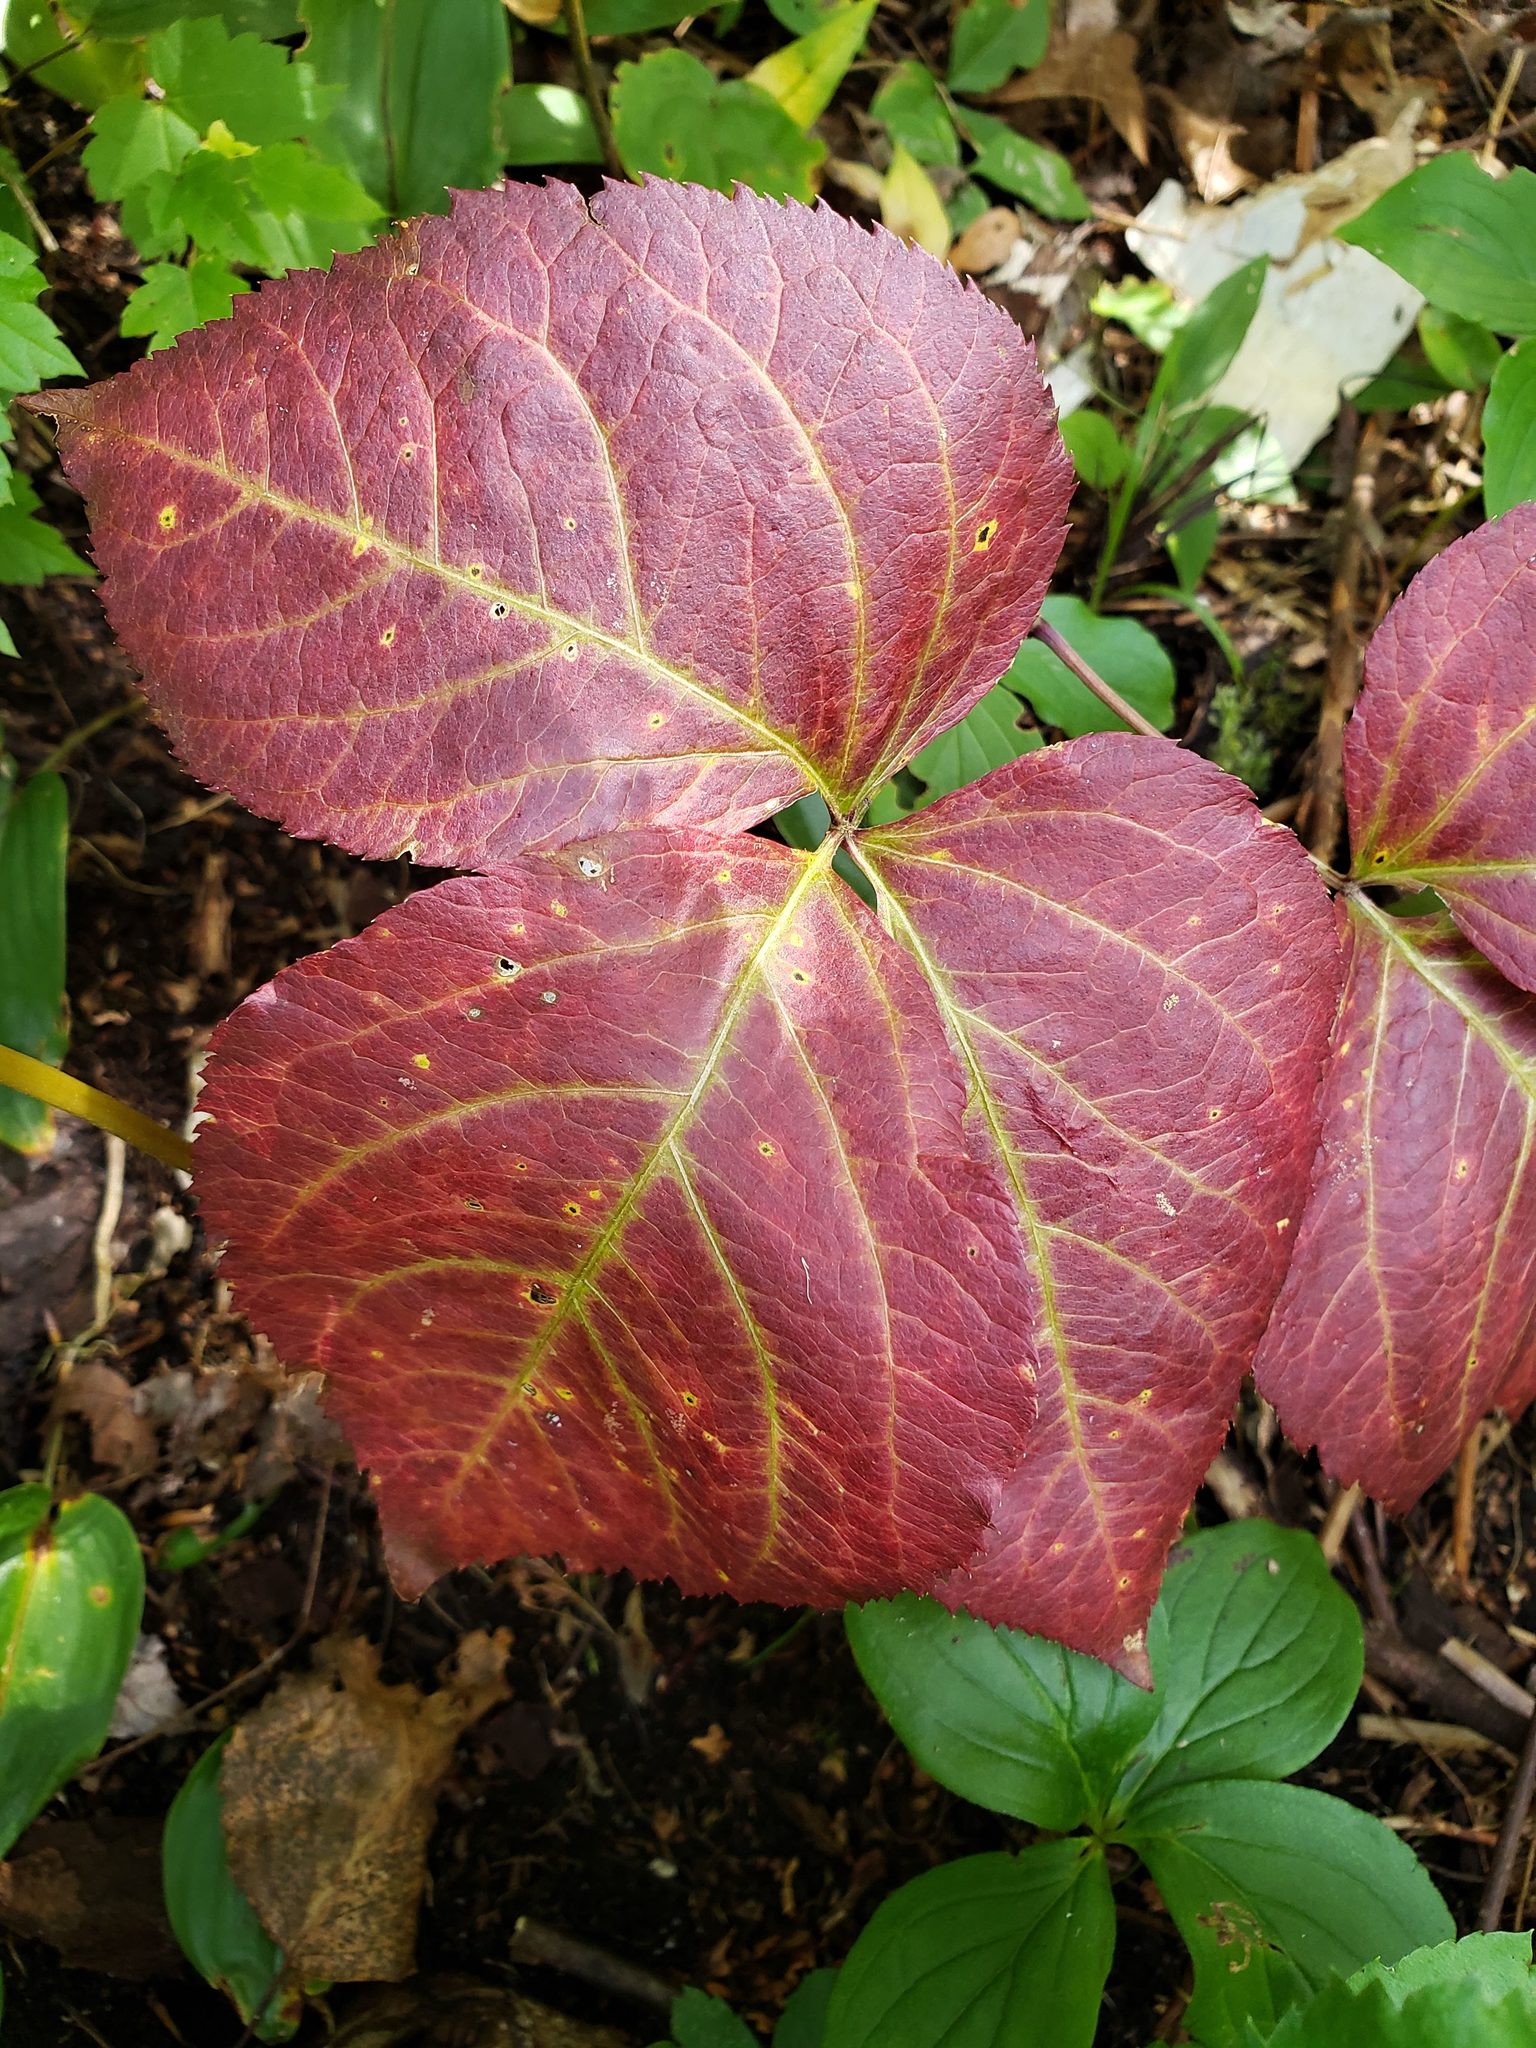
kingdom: Plantae
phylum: Tracheophyta
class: Magnoliopsida
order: Apiales
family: Araliaceae
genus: Aralia
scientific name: Aralia nudicaulis
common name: Wild sarsaparilla
